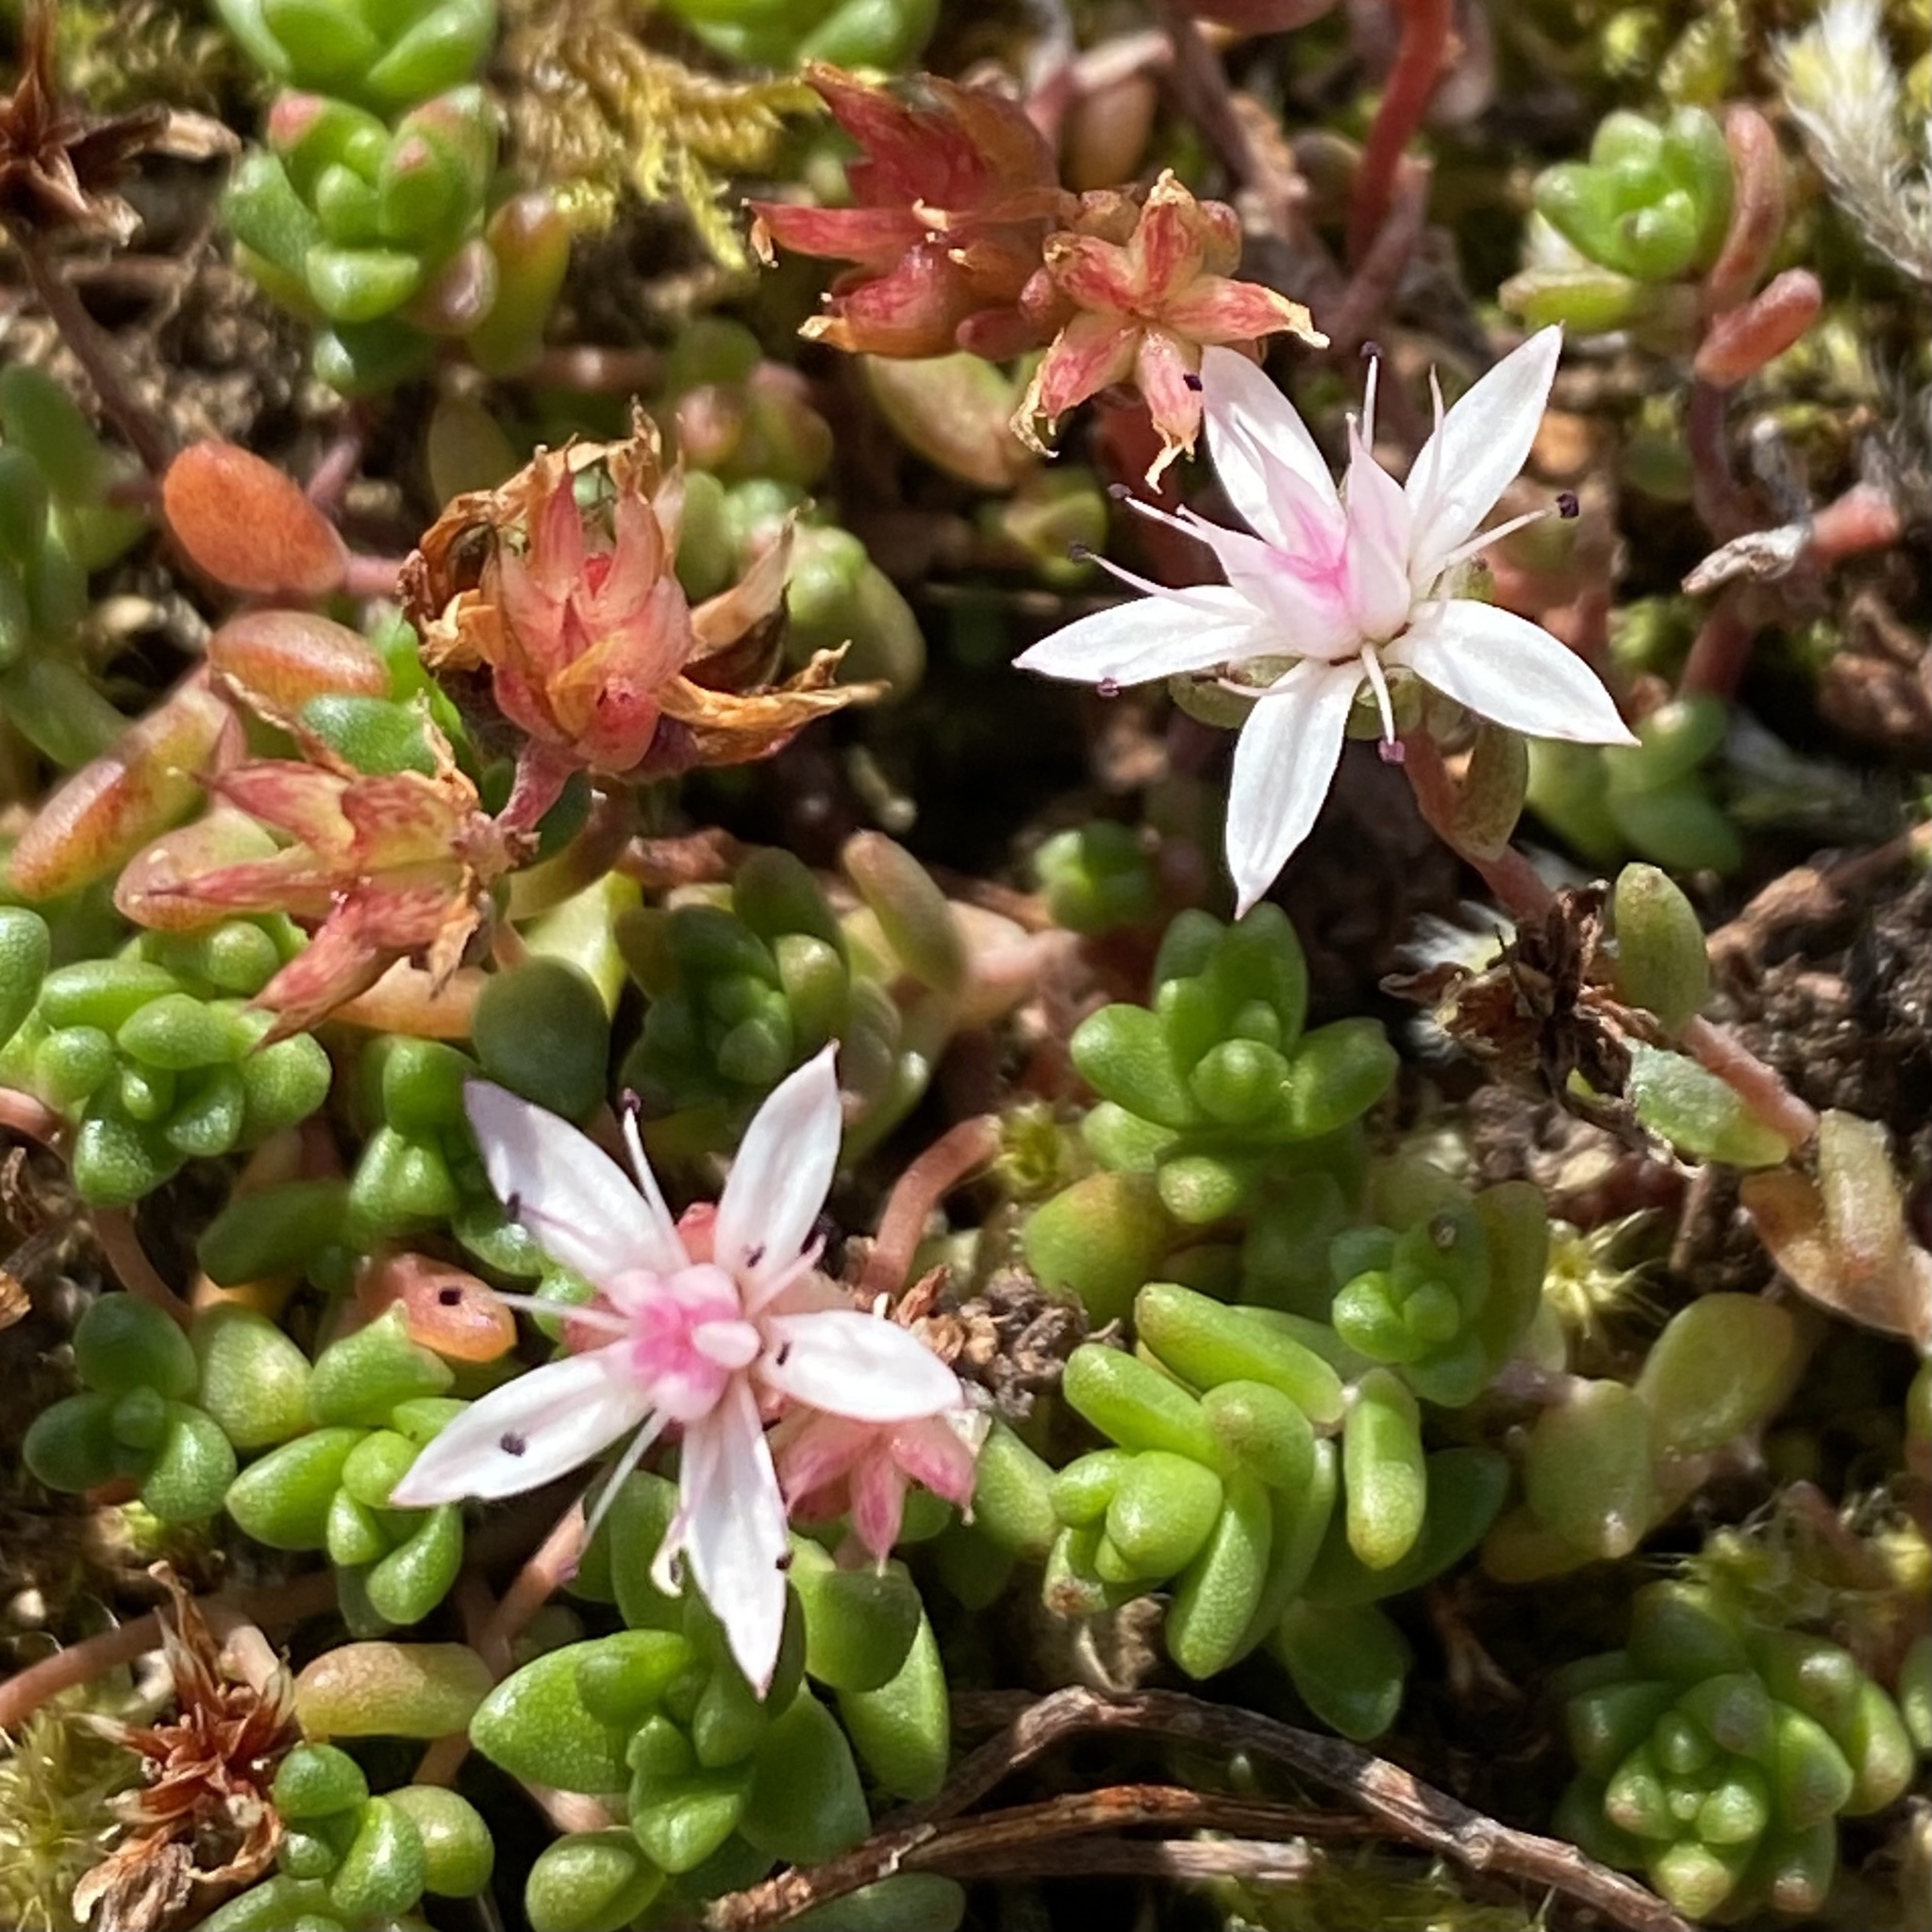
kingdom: Plantae
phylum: Tracheophyta
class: Magnoliopsida
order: Saxifragales
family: Crassulaceae
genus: Sedum
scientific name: Sedum anglicum
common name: English stonecrop
